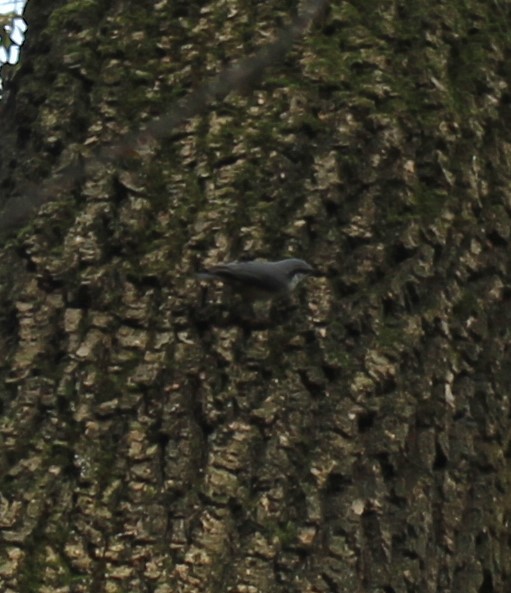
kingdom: Animalia
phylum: Chordata
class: Aves
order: Passeriformes
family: Sittidae
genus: Sitta
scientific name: Sitta europaea
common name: Eurasian nuthatch
